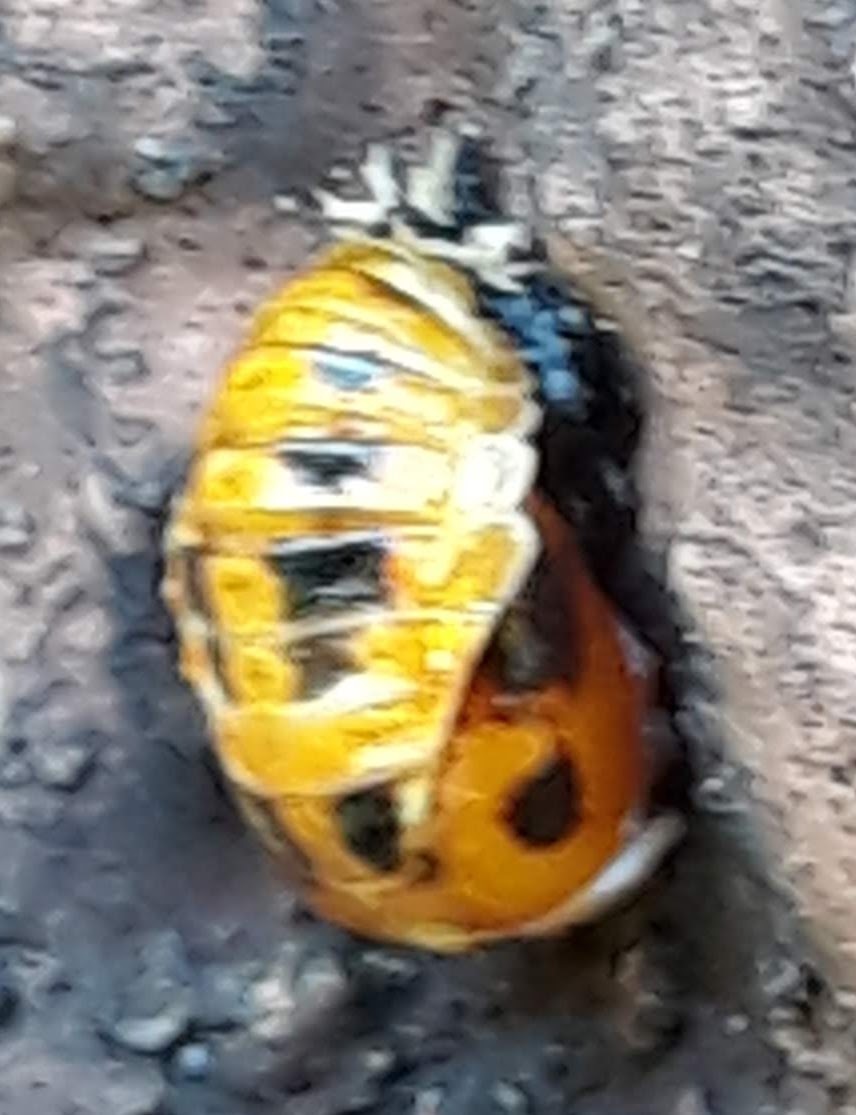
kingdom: Animalia
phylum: Arthropoda
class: Insecta
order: Coleoptera
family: Coccinellidae
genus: Harmonia
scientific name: Harmonia axyridis
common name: Harlequin ladybird
